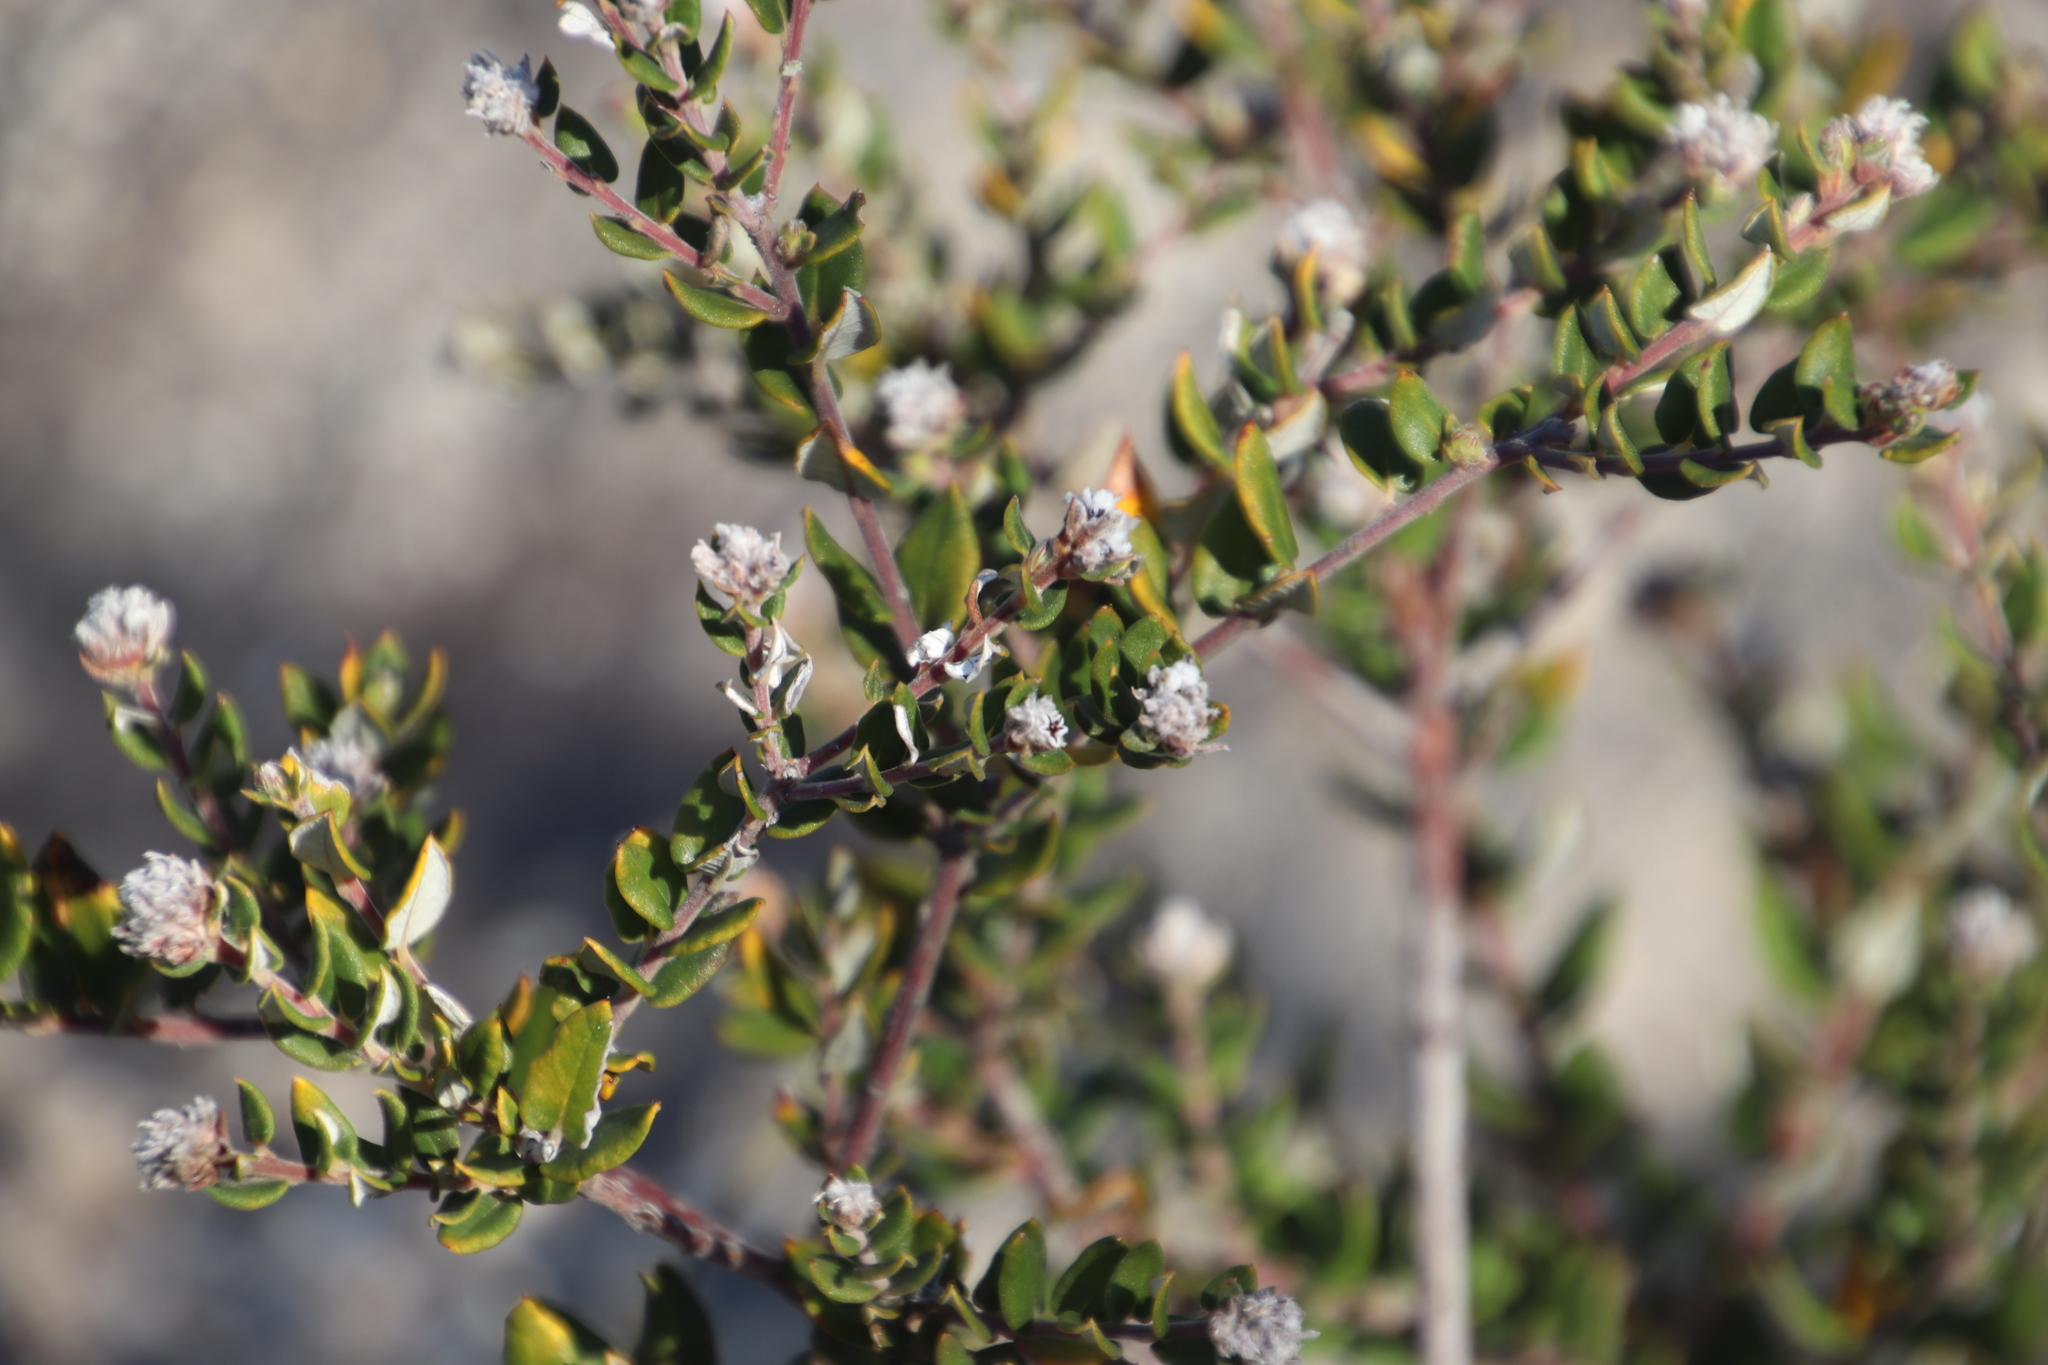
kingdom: Plantae
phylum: Tracheophyta
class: Magnoliopsida
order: Rosales
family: Rhamnaceae
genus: Phylica
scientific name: Phylica nervosa
